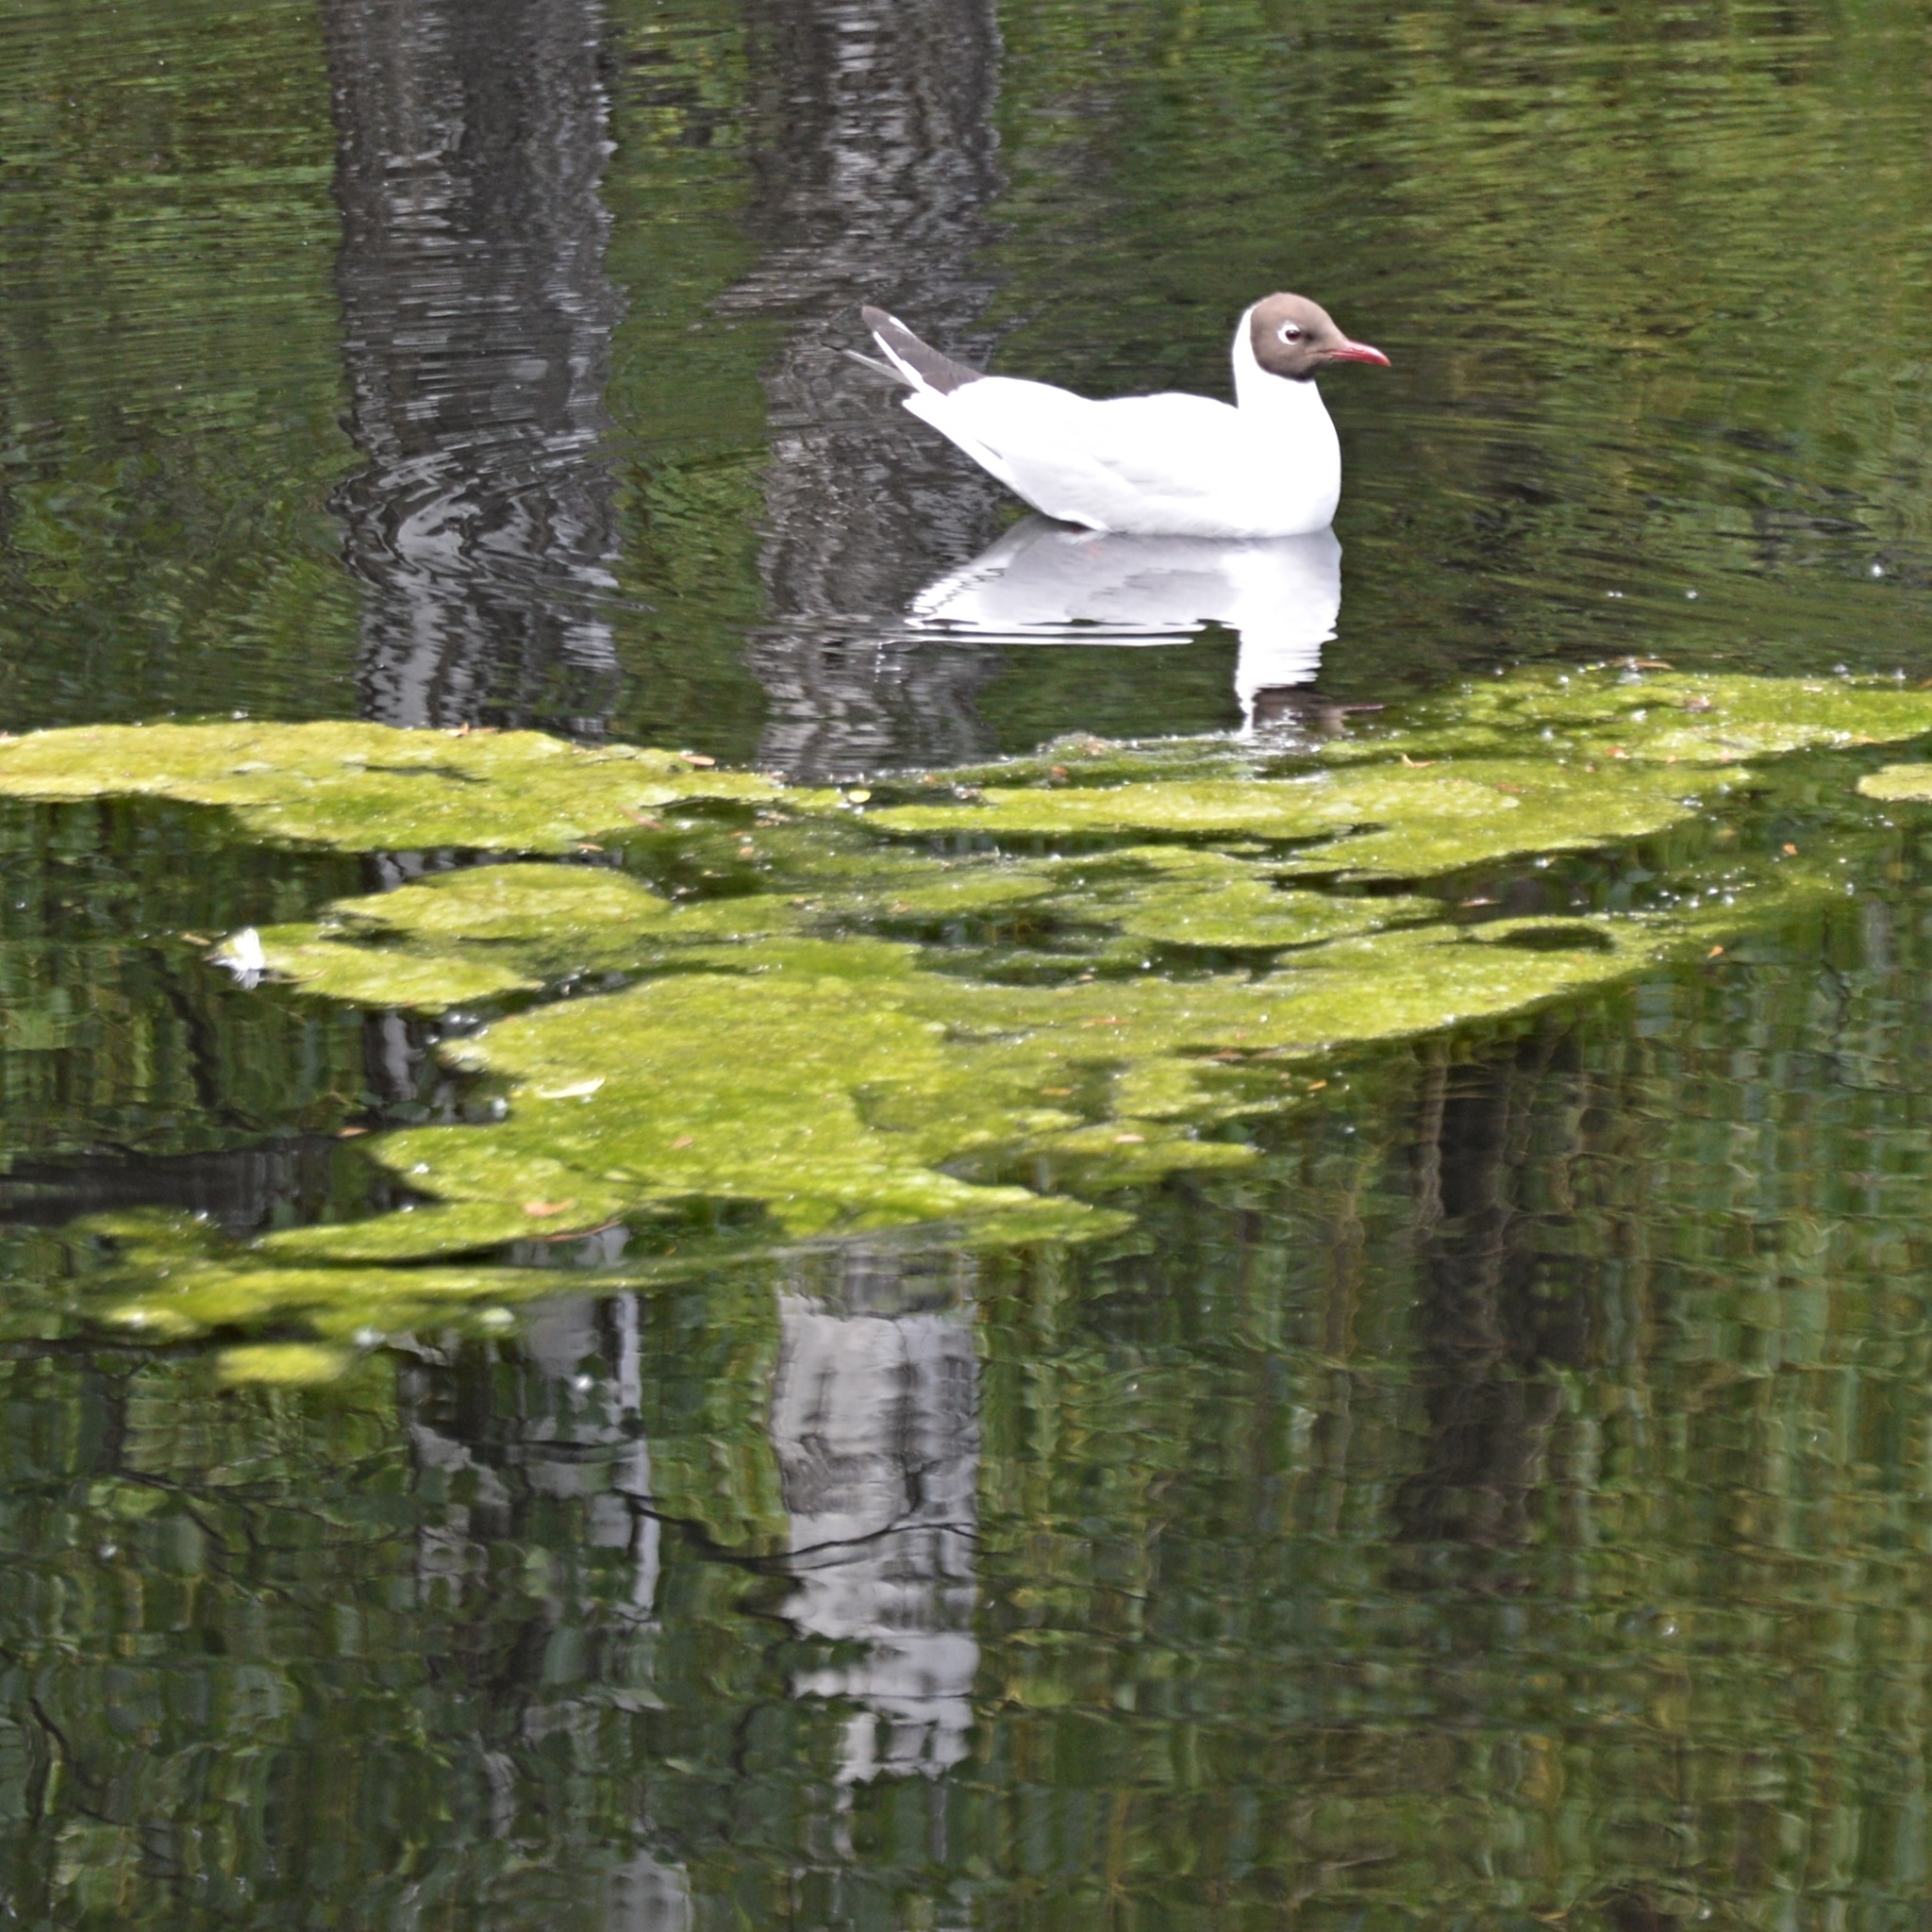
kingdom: Animalia
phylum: Chordata
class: Aves
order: Charadriiformes
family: Laridae
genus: Chroicocephalus
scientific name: Chroicocephalus ridibundus
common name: Black-headed gull
